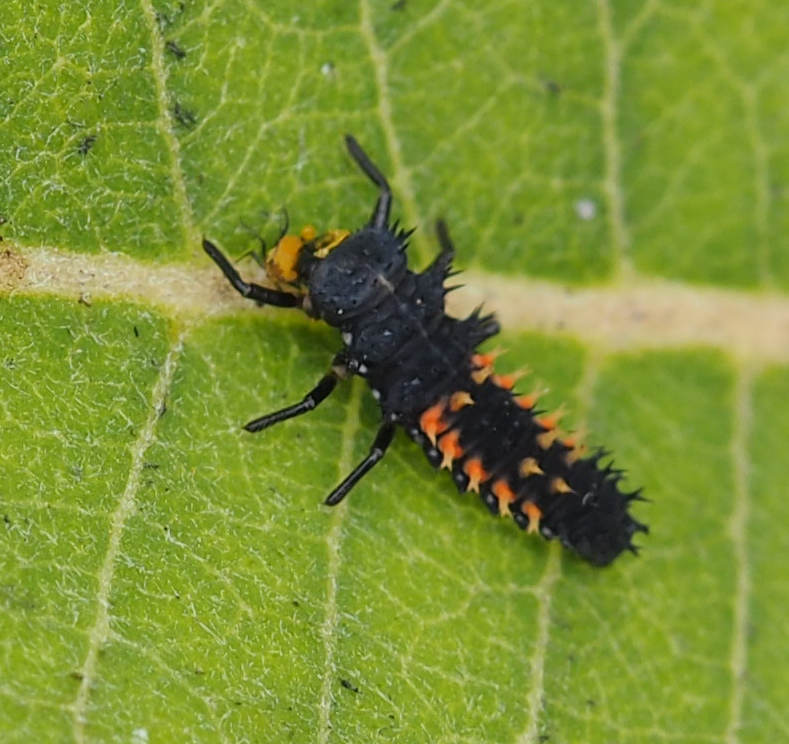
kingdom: Animalia
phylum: Arthropoda
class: Insecta
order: Coleoptera
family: Coccinellidae
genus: Harmonia
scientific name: Harmonia axyridis
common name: Harlequin ladybird
